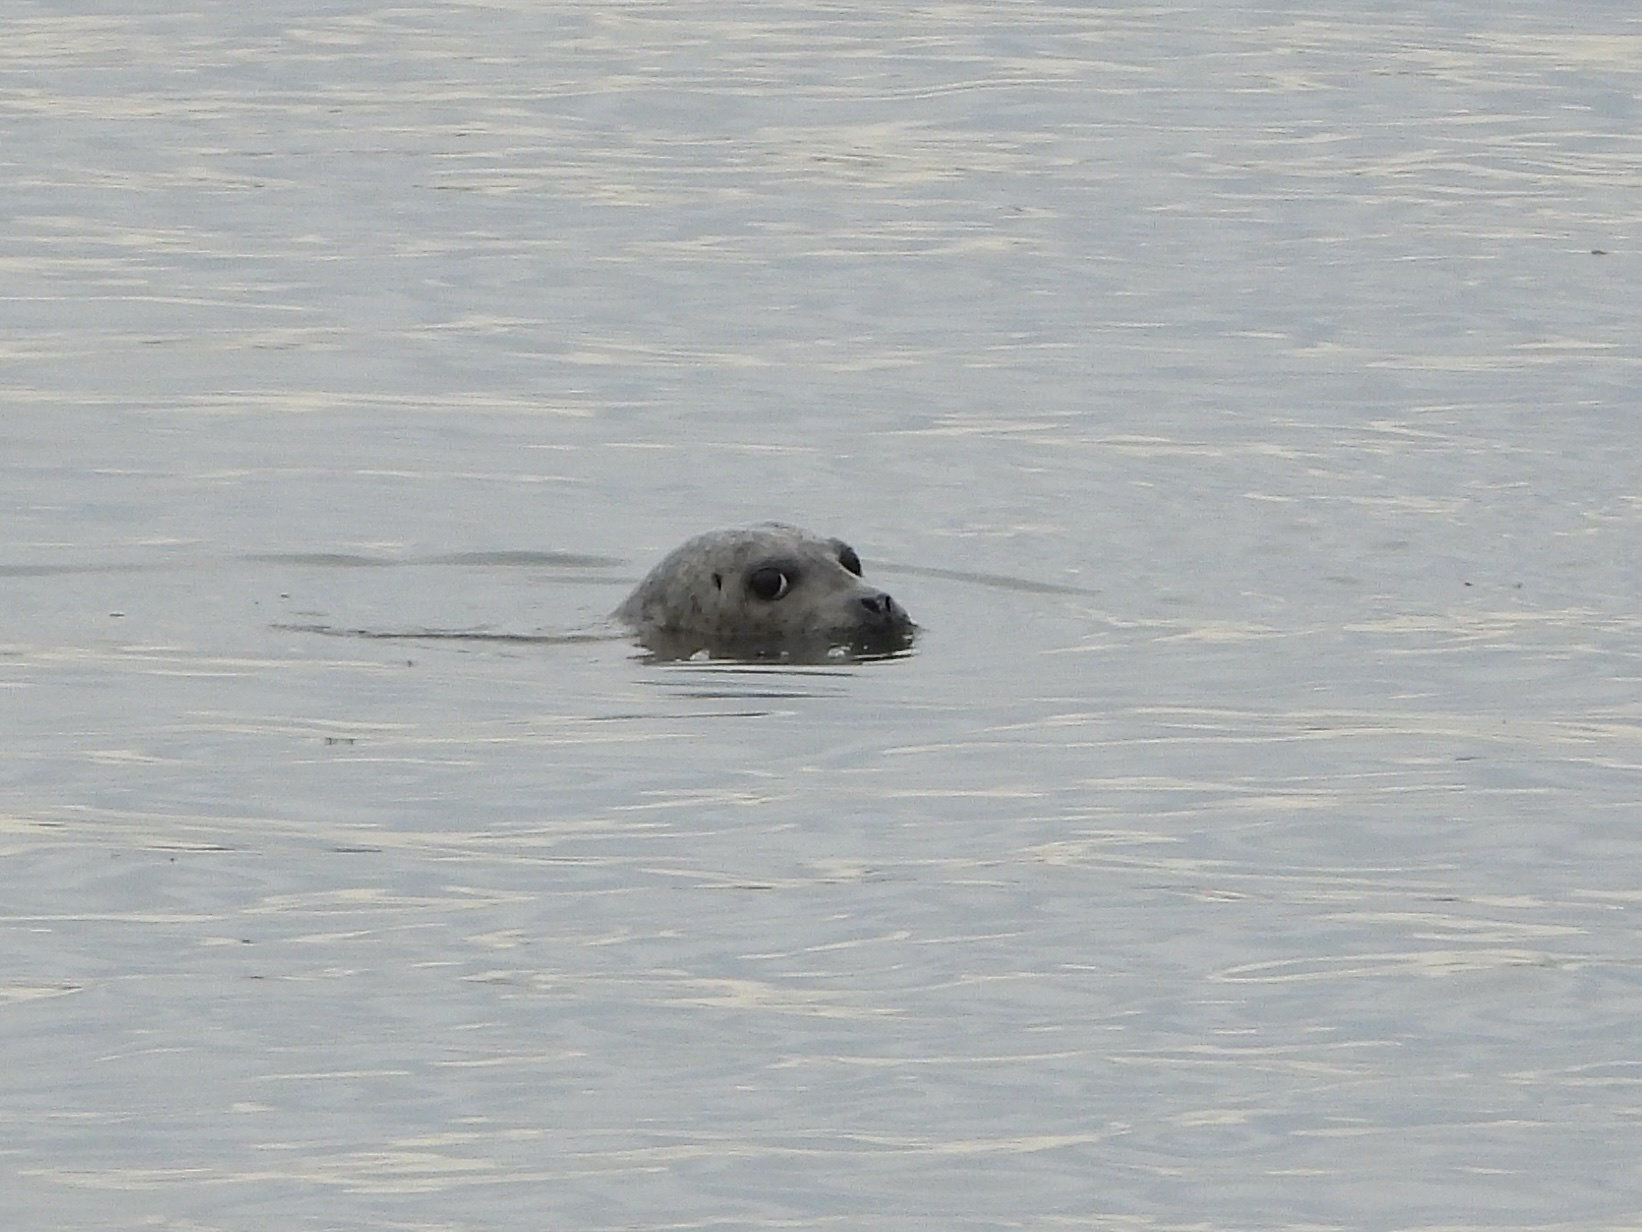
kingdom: Animalia
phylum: Chordata
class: Mammalia
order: Carnivora
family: Phocidae
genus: Phoca
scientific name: Phoca vitulina
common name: Harbor seal
